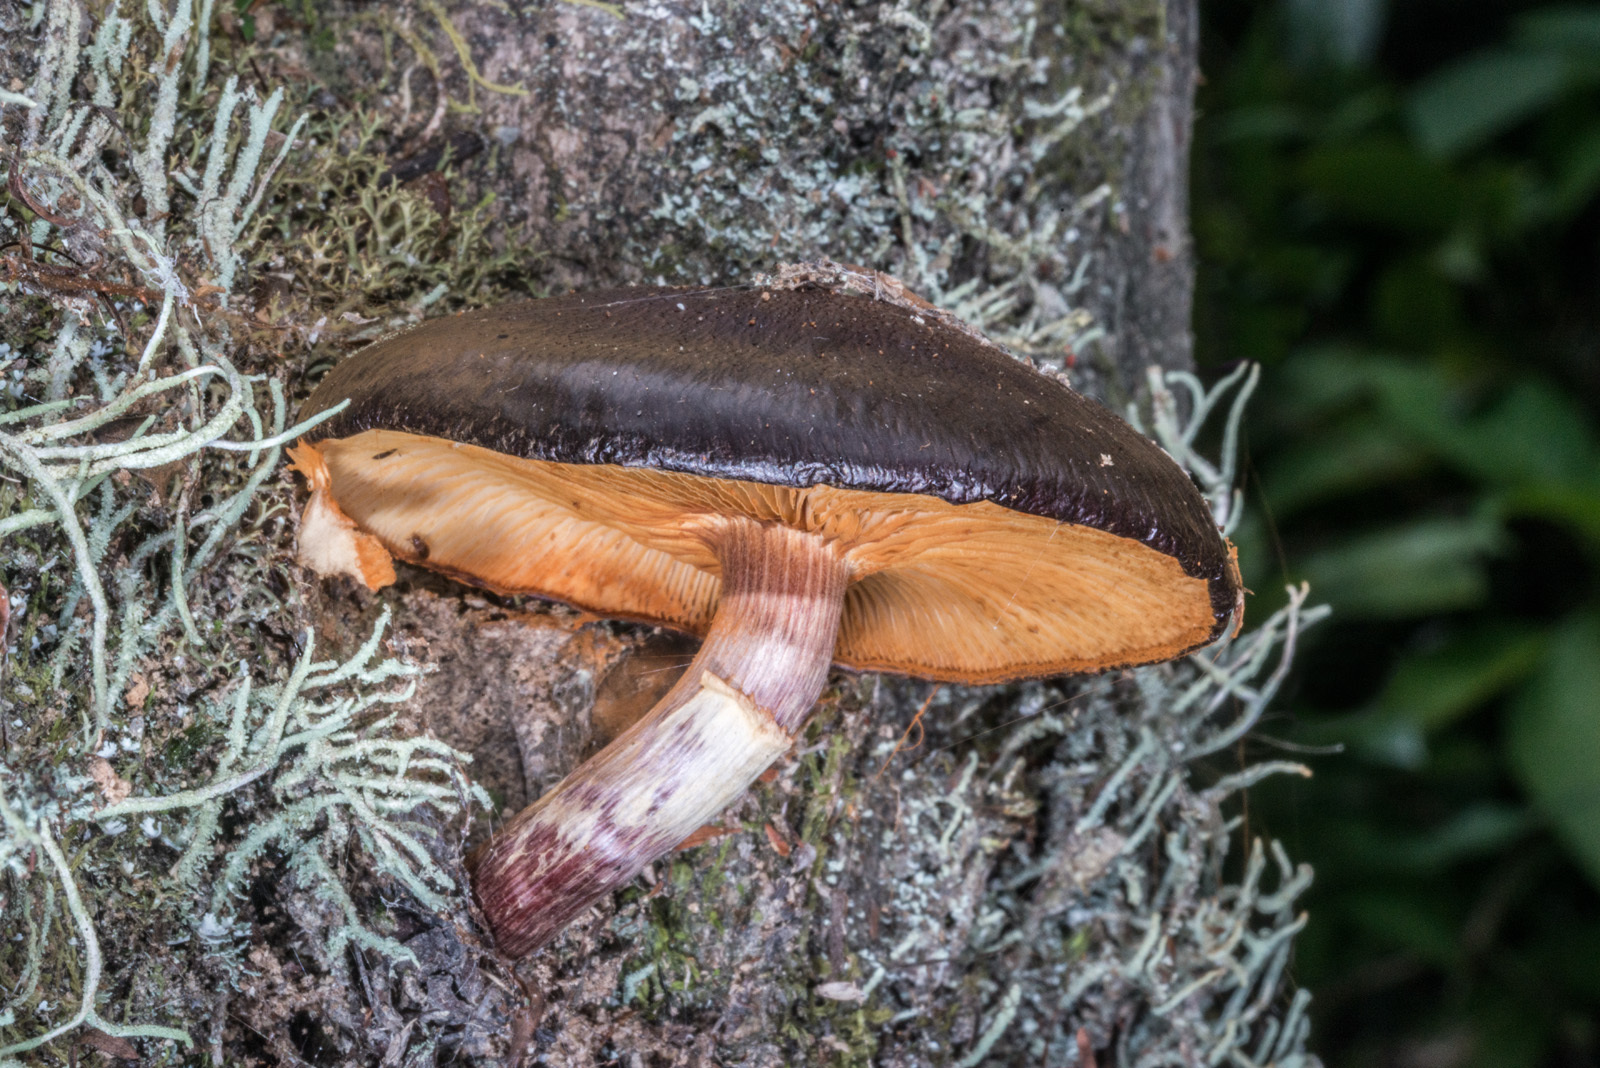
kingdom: Fungi
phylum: Basidiomycota
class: Agaricomycetes
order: Agaricales
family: Hymenogastraceae
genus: Gymnopilus
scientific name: Gymnopilus purpuratus
